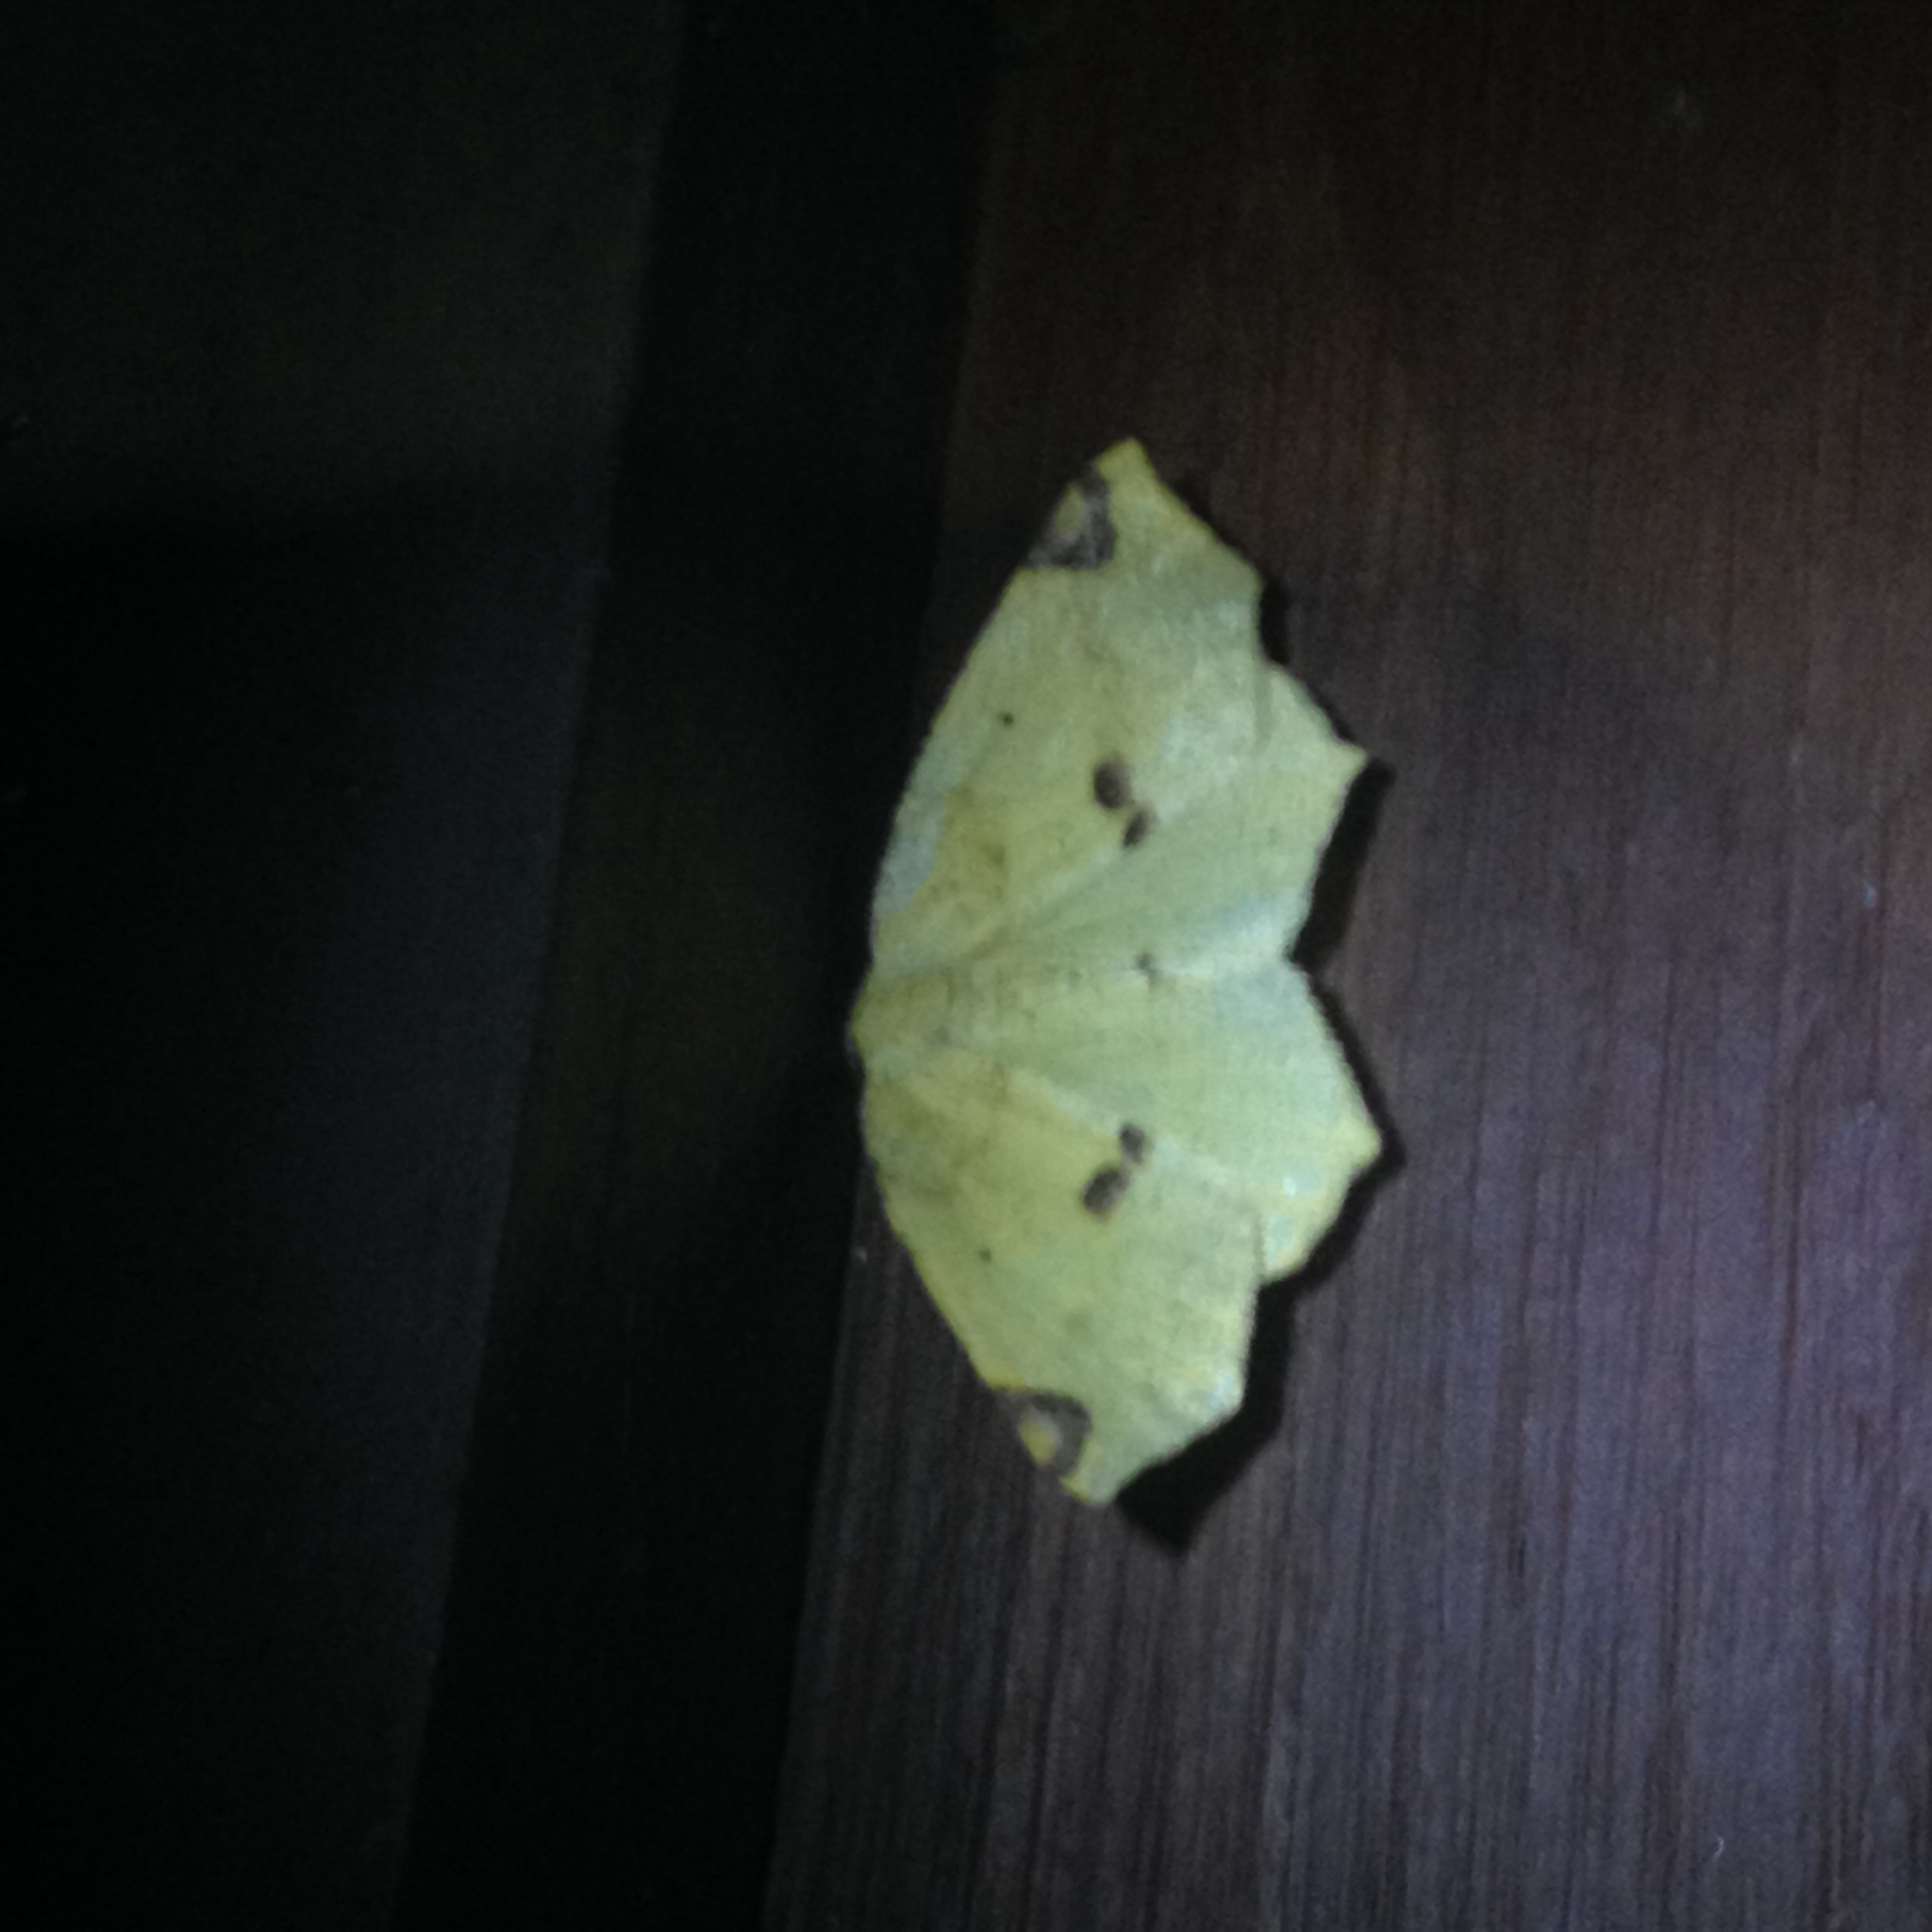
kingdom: Animalia
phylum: Arthropoda
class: Insecta
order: Lepidoptera
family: Geometridae
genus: Antepione
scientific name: Antepione thisoaria
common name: Variable antipione
